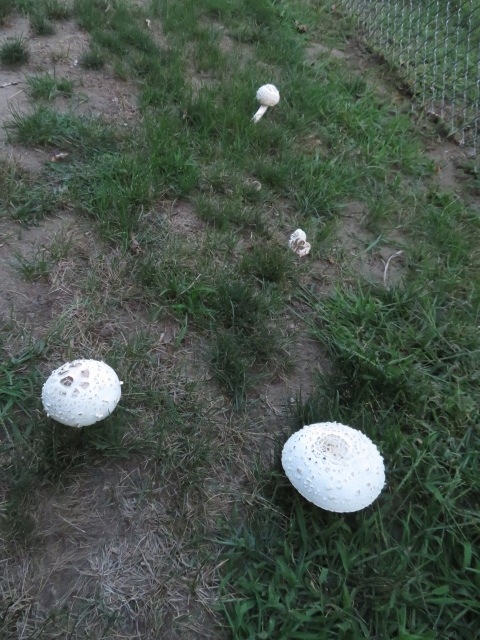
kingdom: Fungi
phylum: Basidiomycota
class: Agaricomycetes
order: Agaricales
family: Agaricaceae
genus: Chlorophyllum
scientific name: Chlorophyllum molybdites
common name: False parasol
